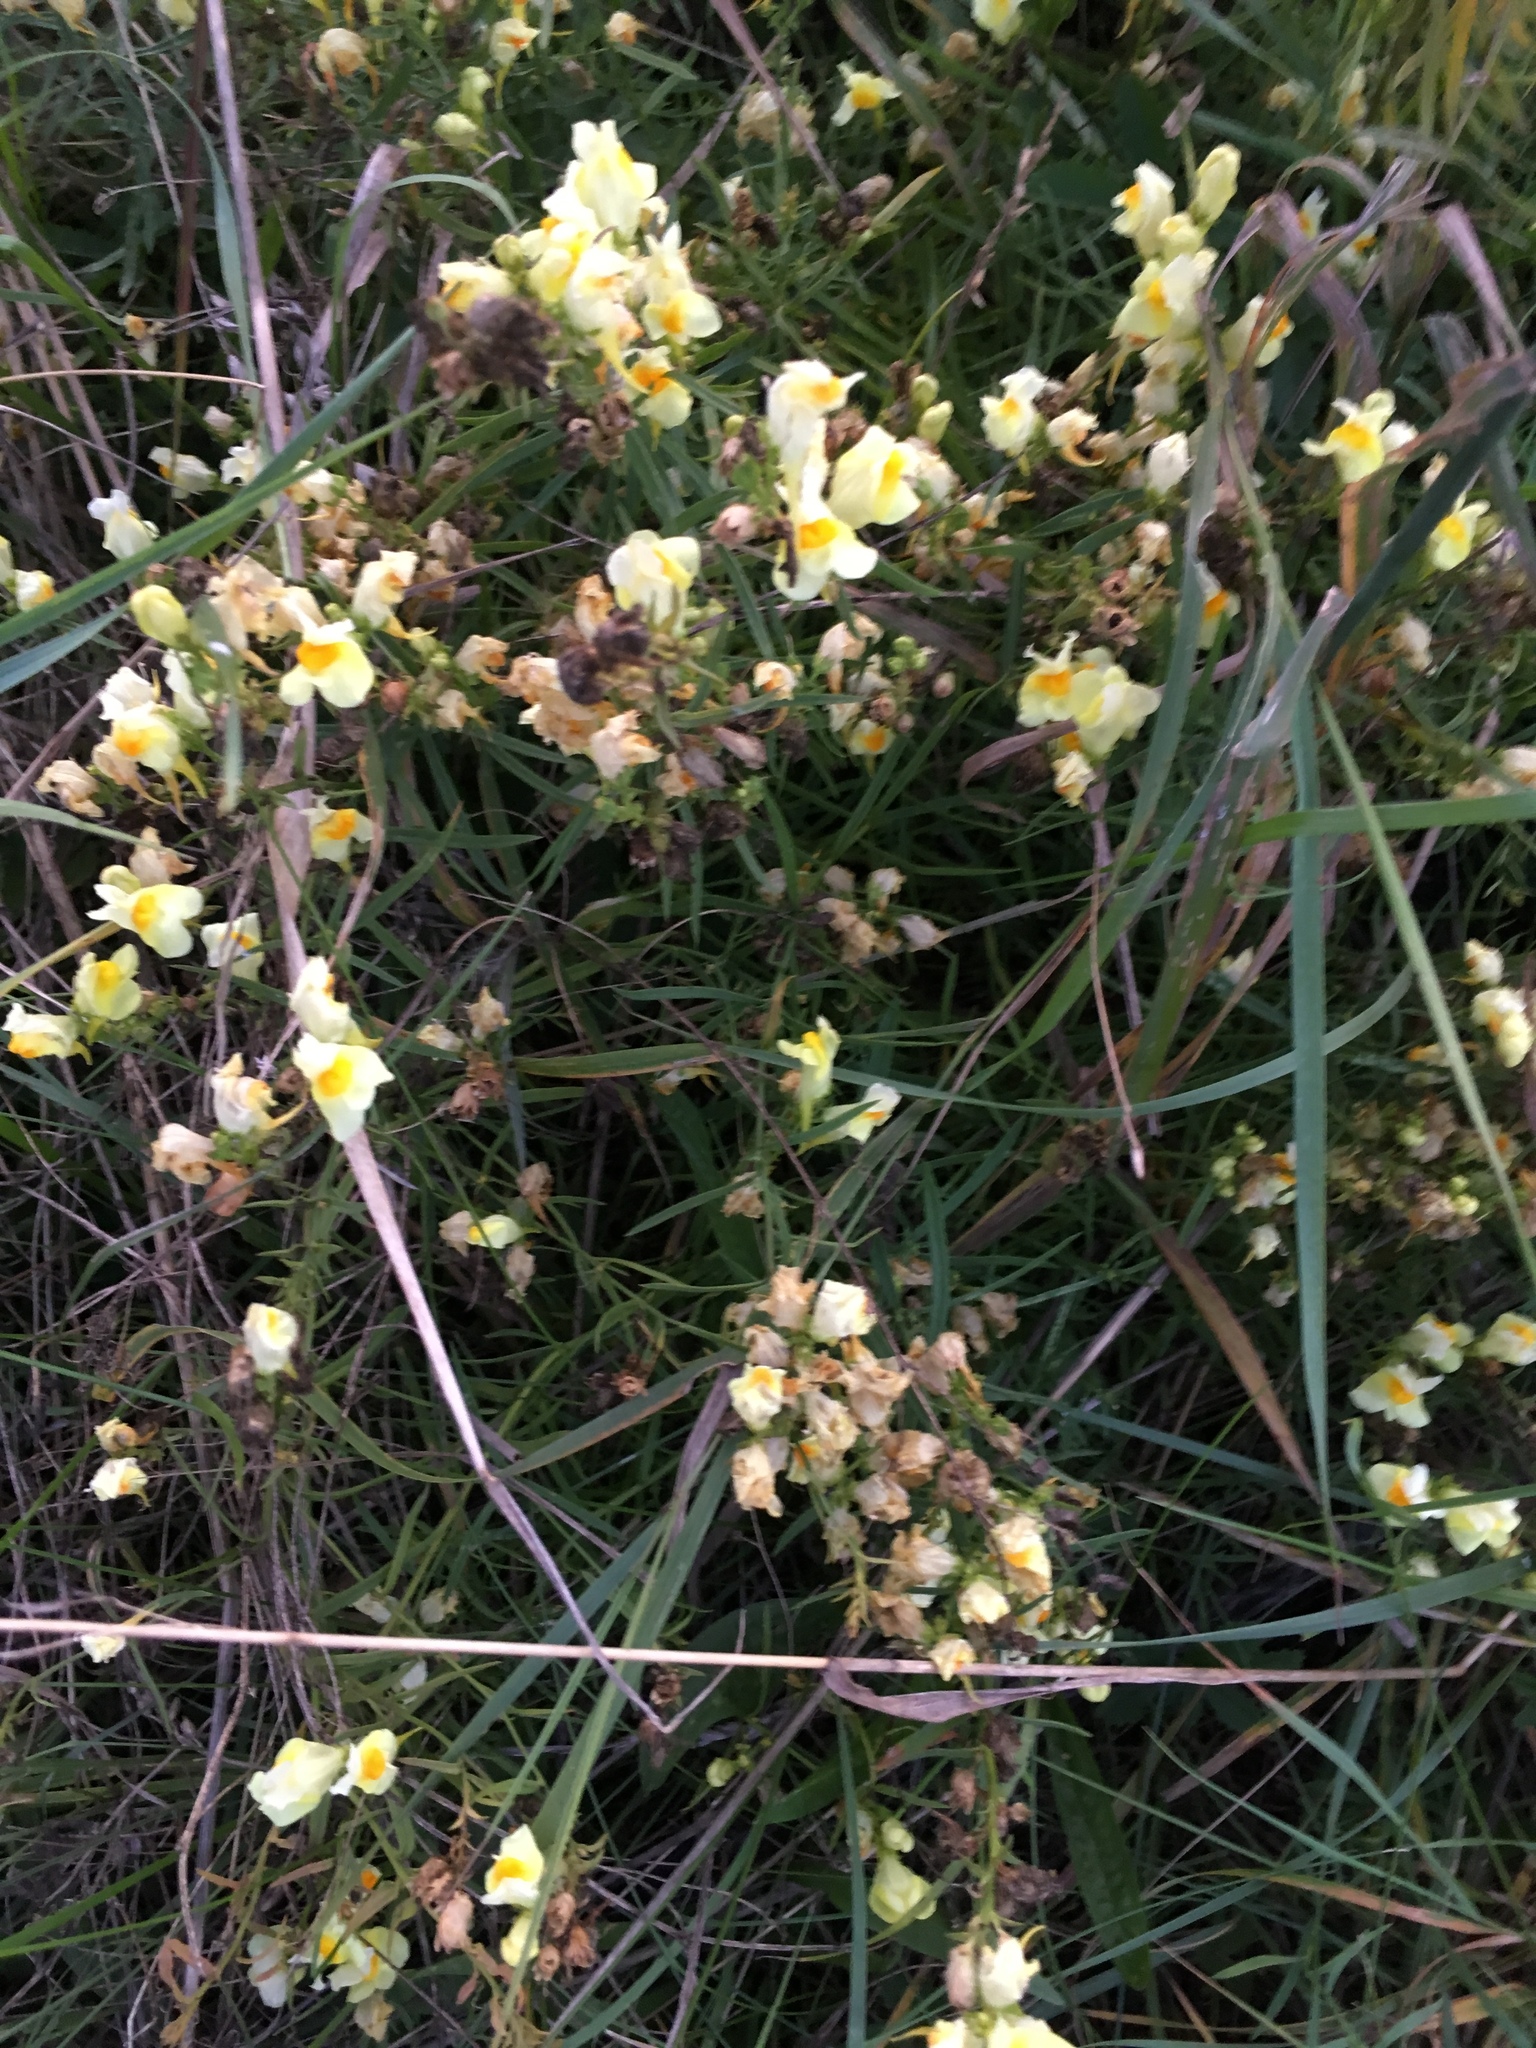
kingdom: Plantae
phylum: Tracheophyta
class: Magnoliopsida
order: Lamiales
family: Plantaginaceae
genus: Linaria
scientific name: Linaria vulgaris
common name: Butter and eggs
